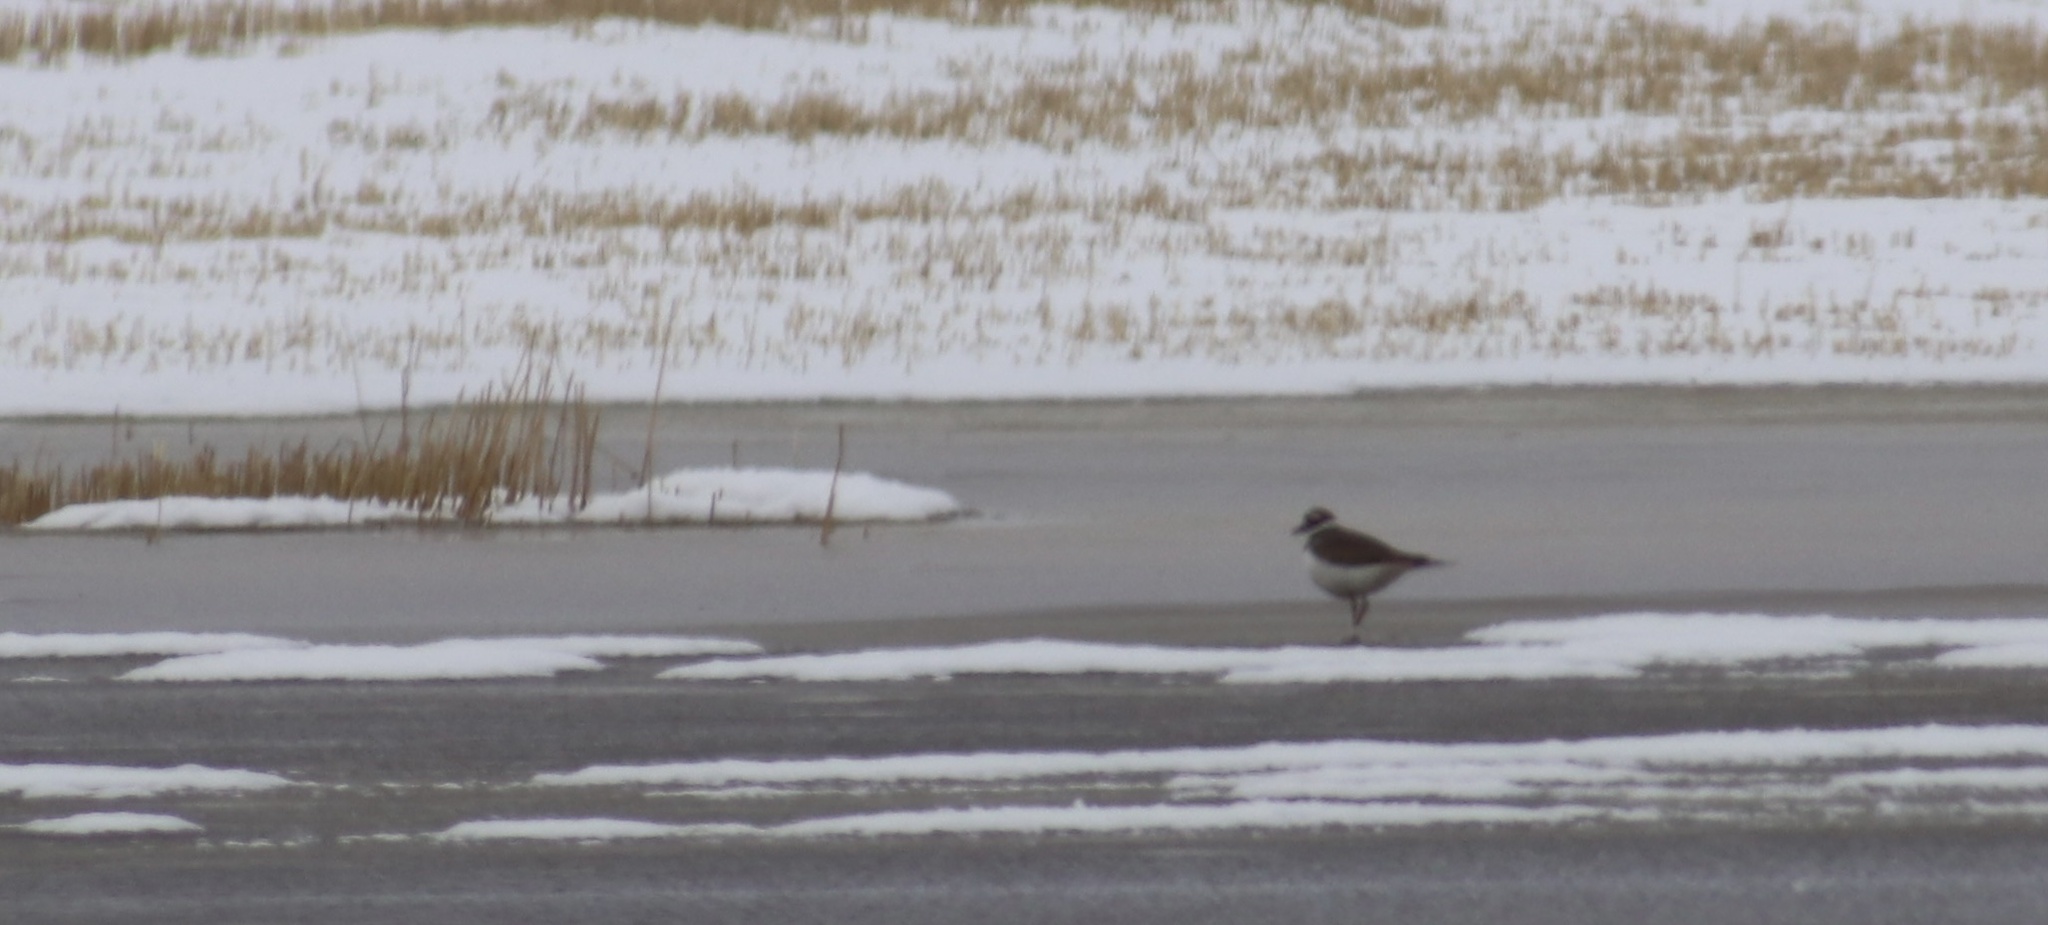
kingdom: Animalia
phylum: Chordata
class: Aves
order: Charadriiformes
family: Charadriidae
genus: Charadrius
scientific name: Charadrius vociferus
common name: Killdeer
